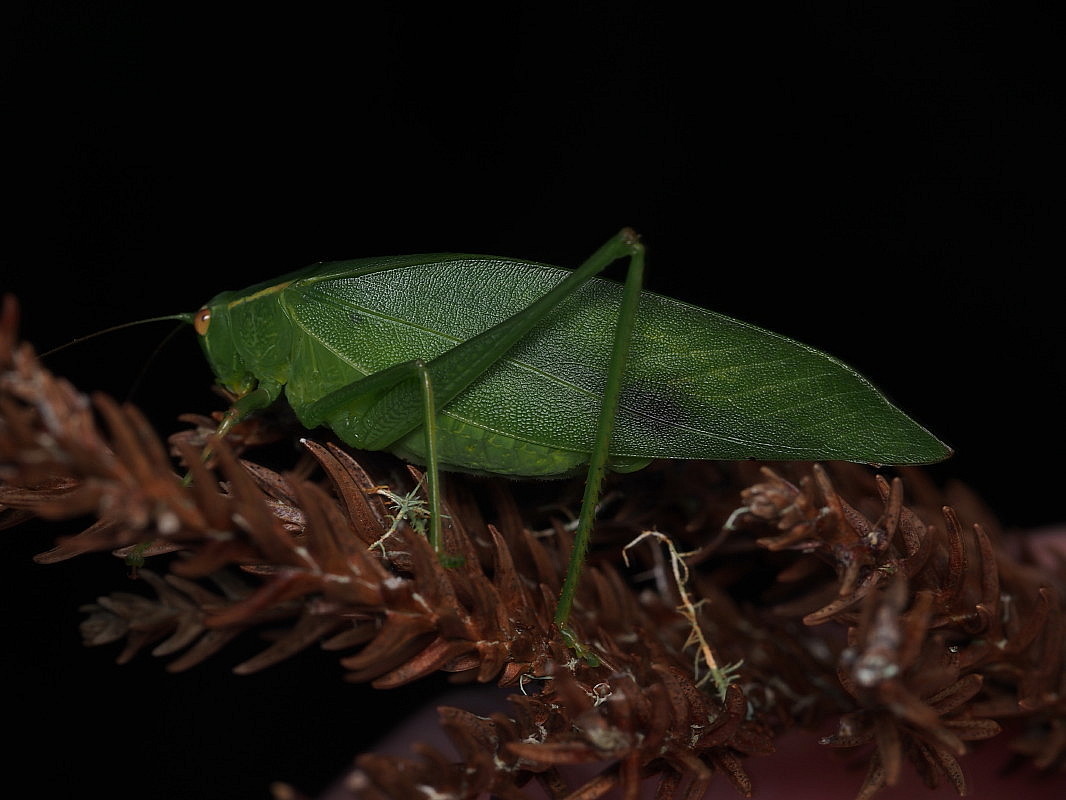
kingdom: Animalia
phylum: Arthropoda
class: Insecta
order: Orthoptera
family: Tettigoniidae
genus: Caedicia
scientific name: Caedicia simplex
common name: Common garden katydid
